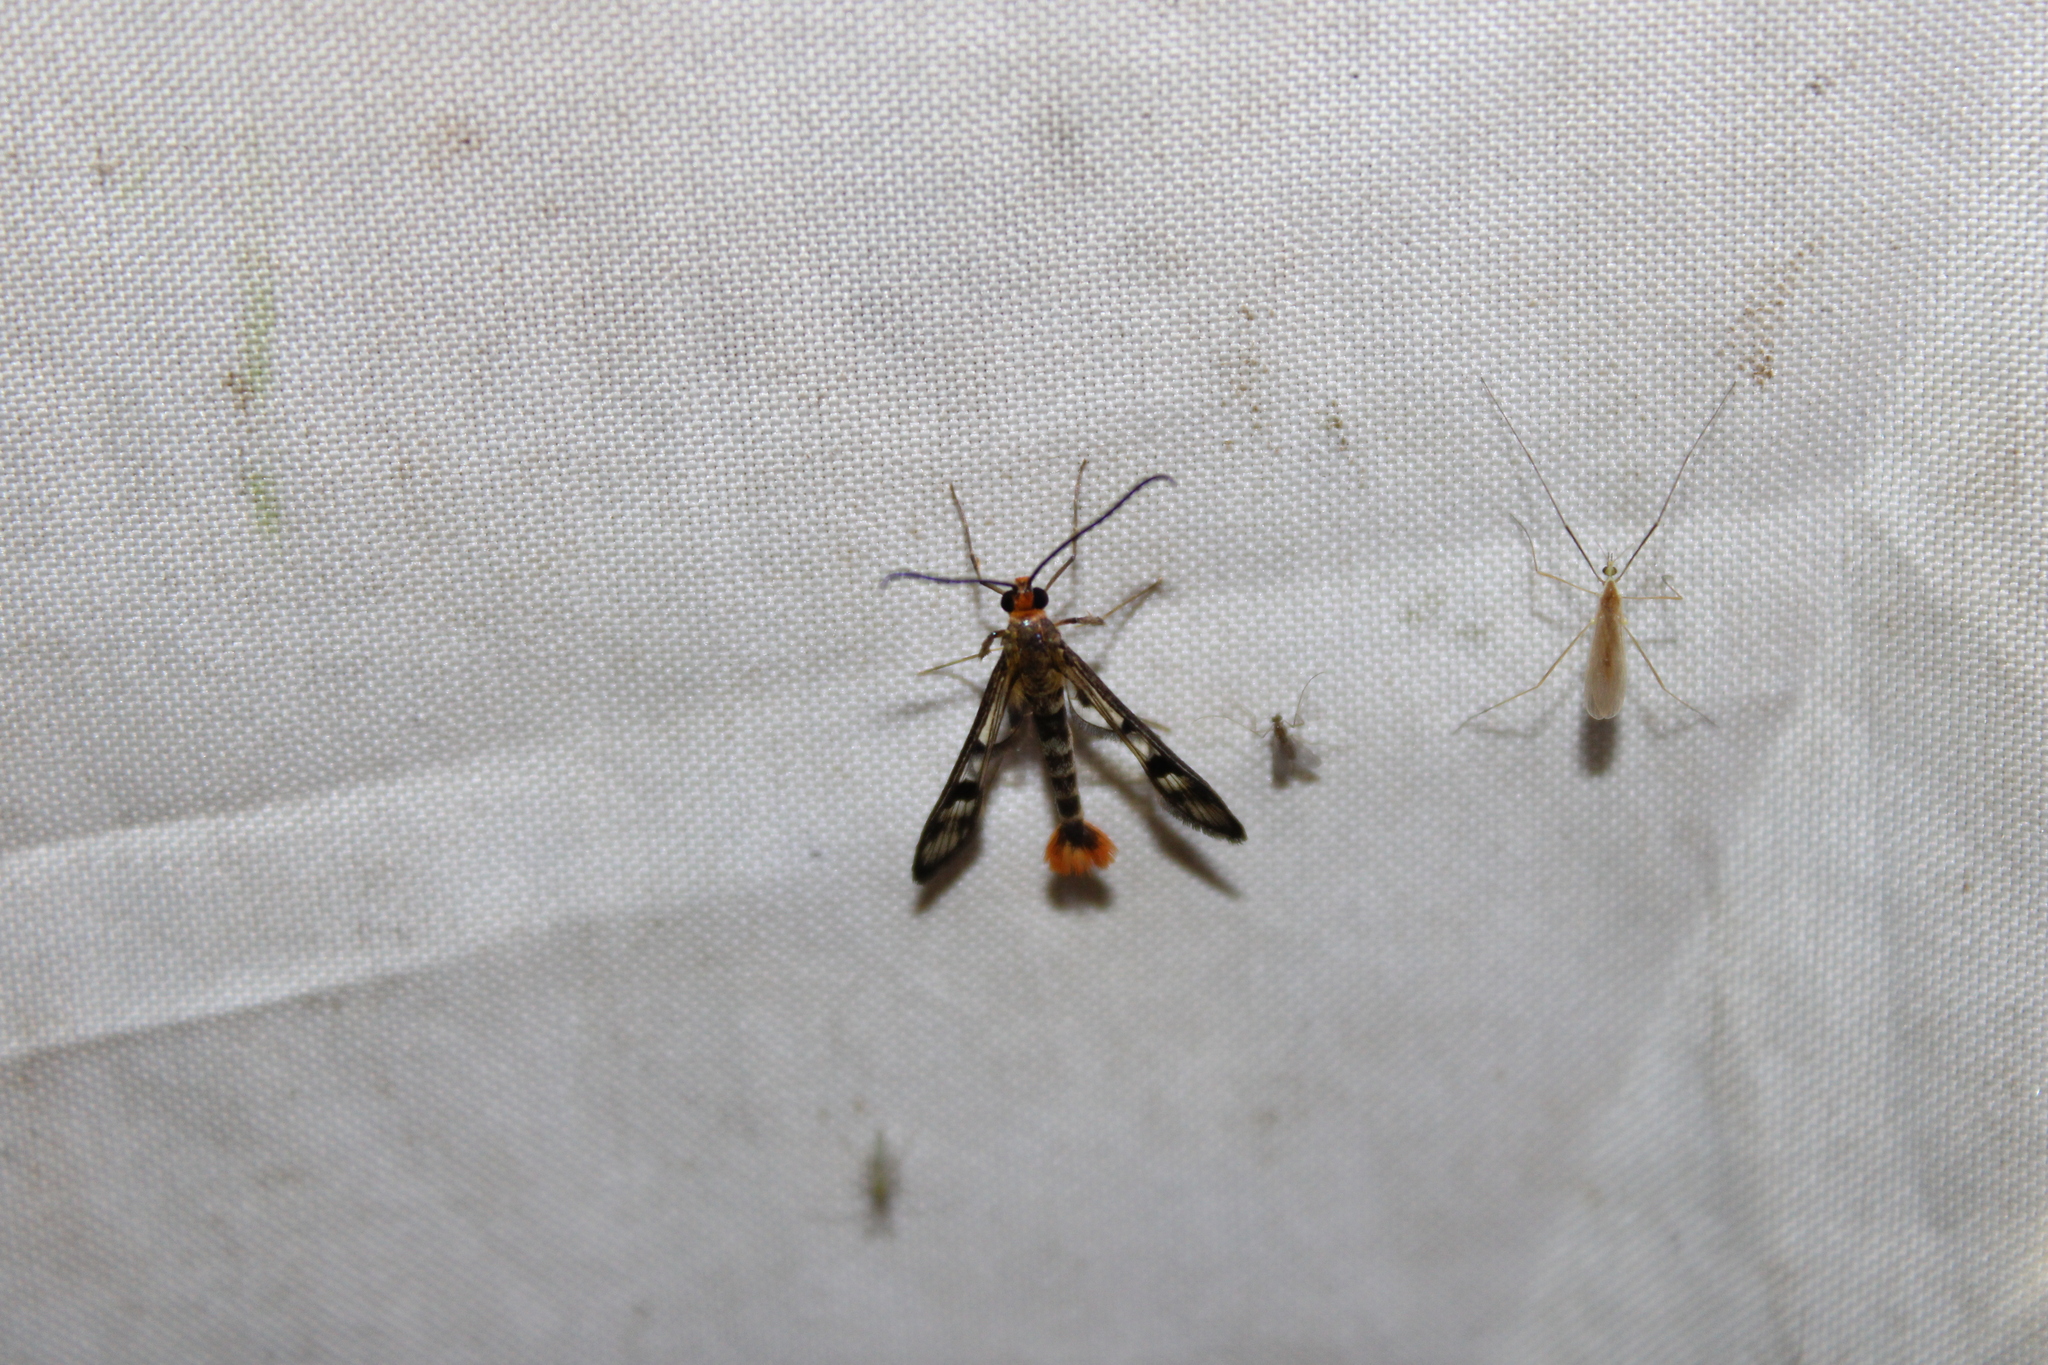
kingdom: Animalia
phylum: Arthropoda
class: Insecta
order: Lepidoptera
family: Sesiidae
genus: Synanthedon
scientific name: Synanthedon acerni
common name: Maple callus borer moth
